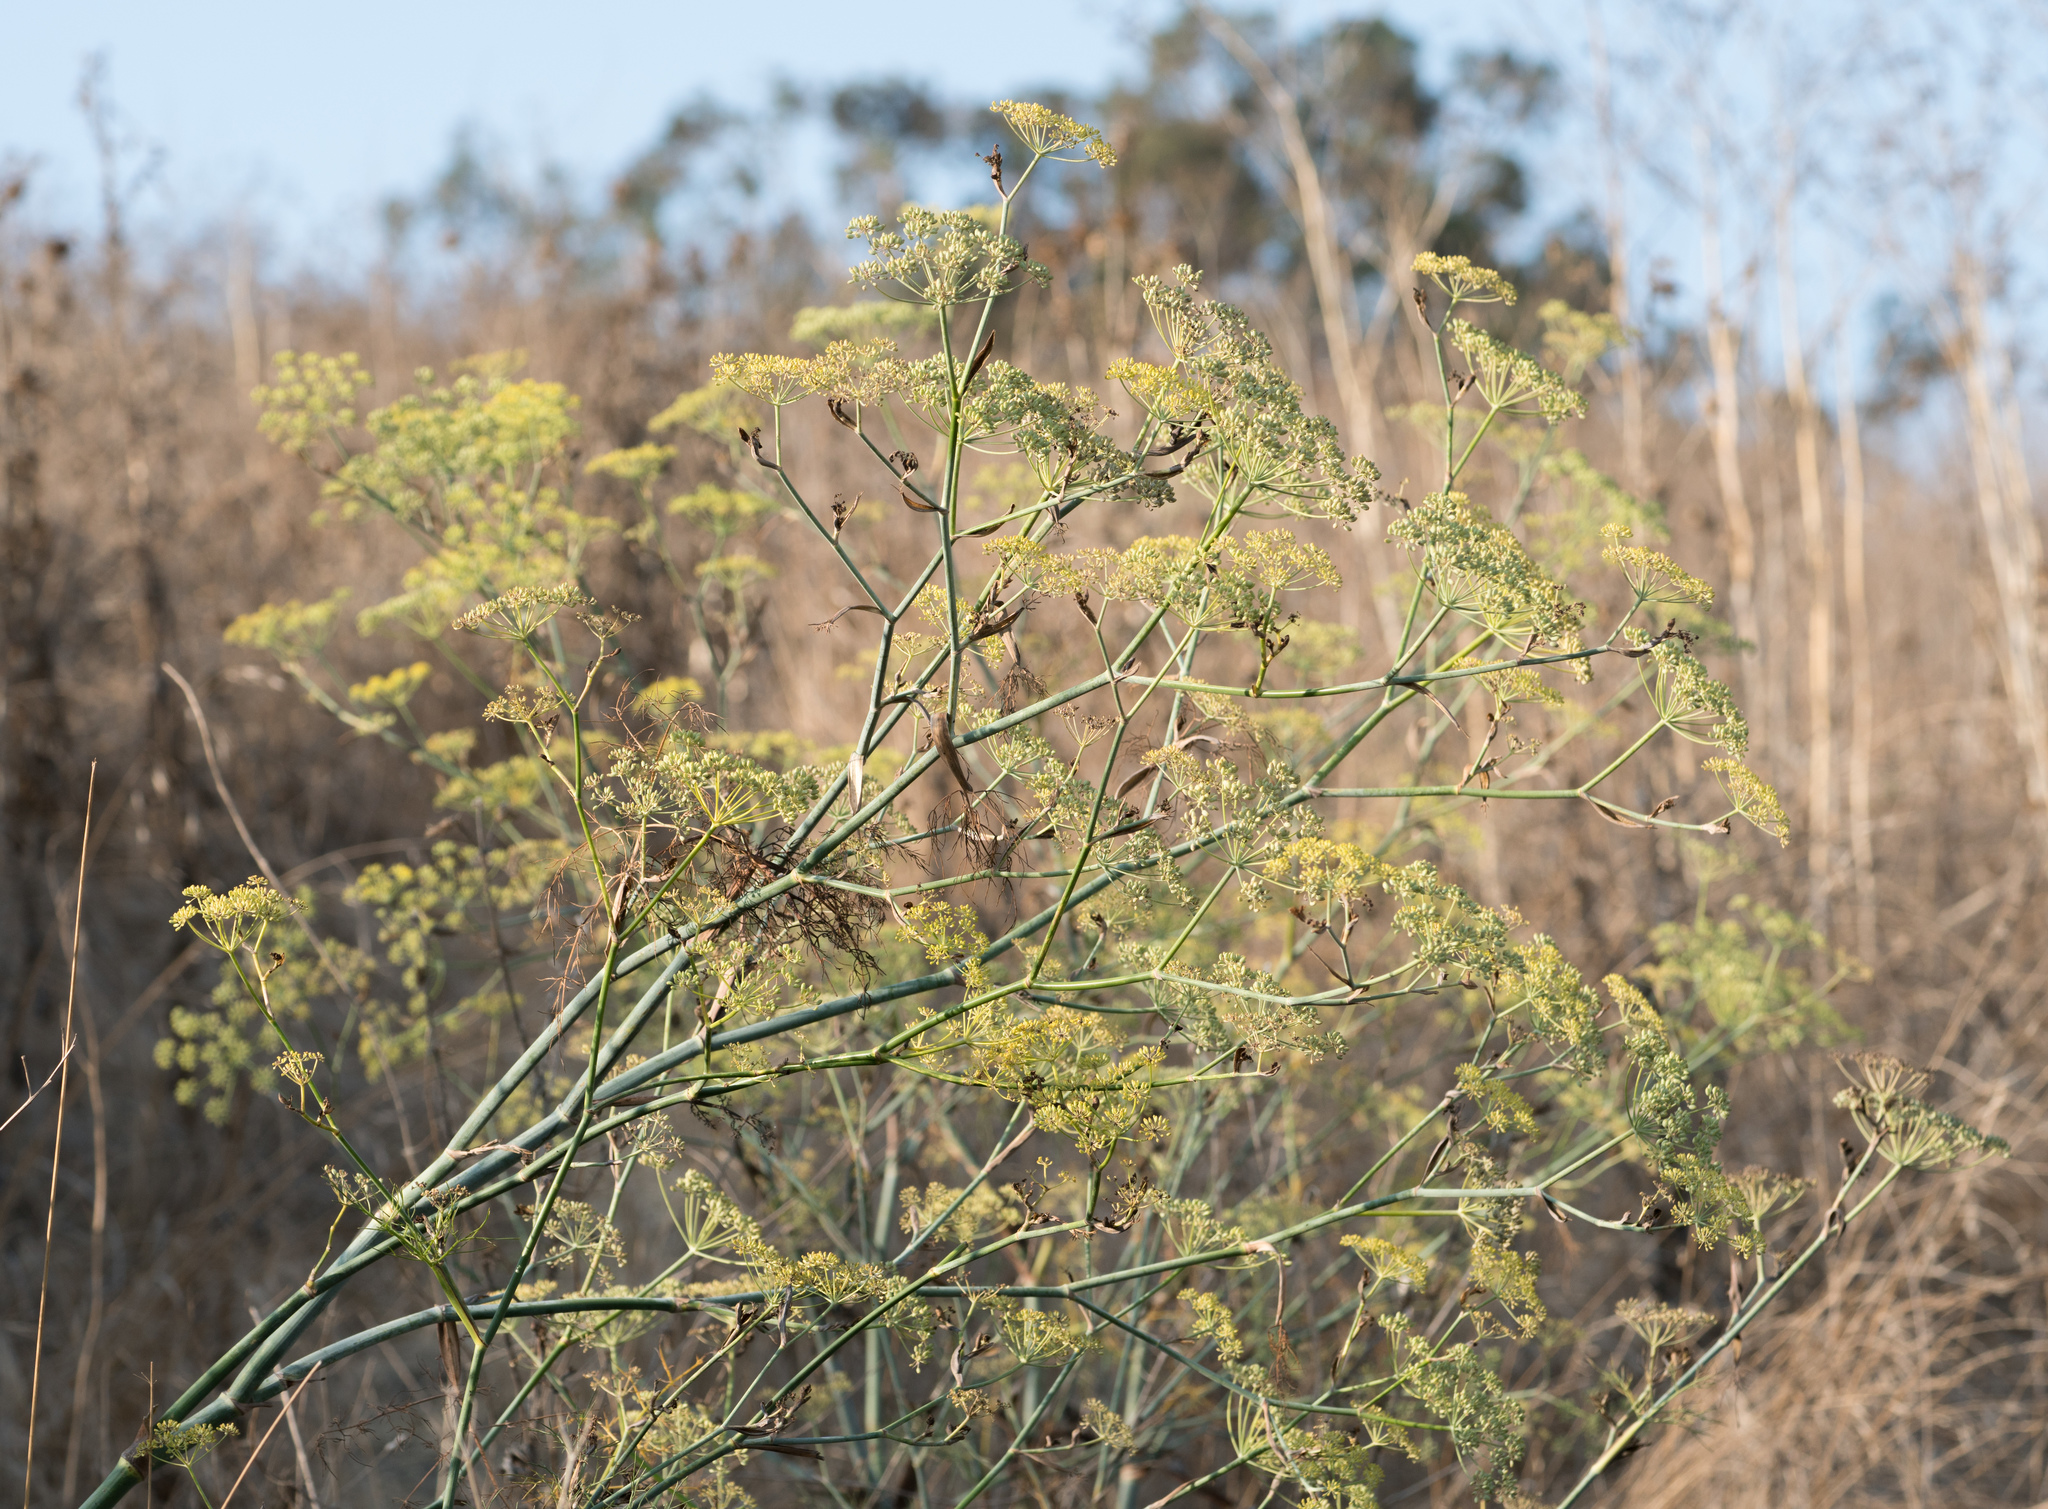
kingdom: Plantae
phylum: Tracheophyta
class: Magnoliopsida
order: Apiales
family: Apiaceae
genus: Foeniculum
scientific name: Foeniculum vulgare
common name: Fennel
